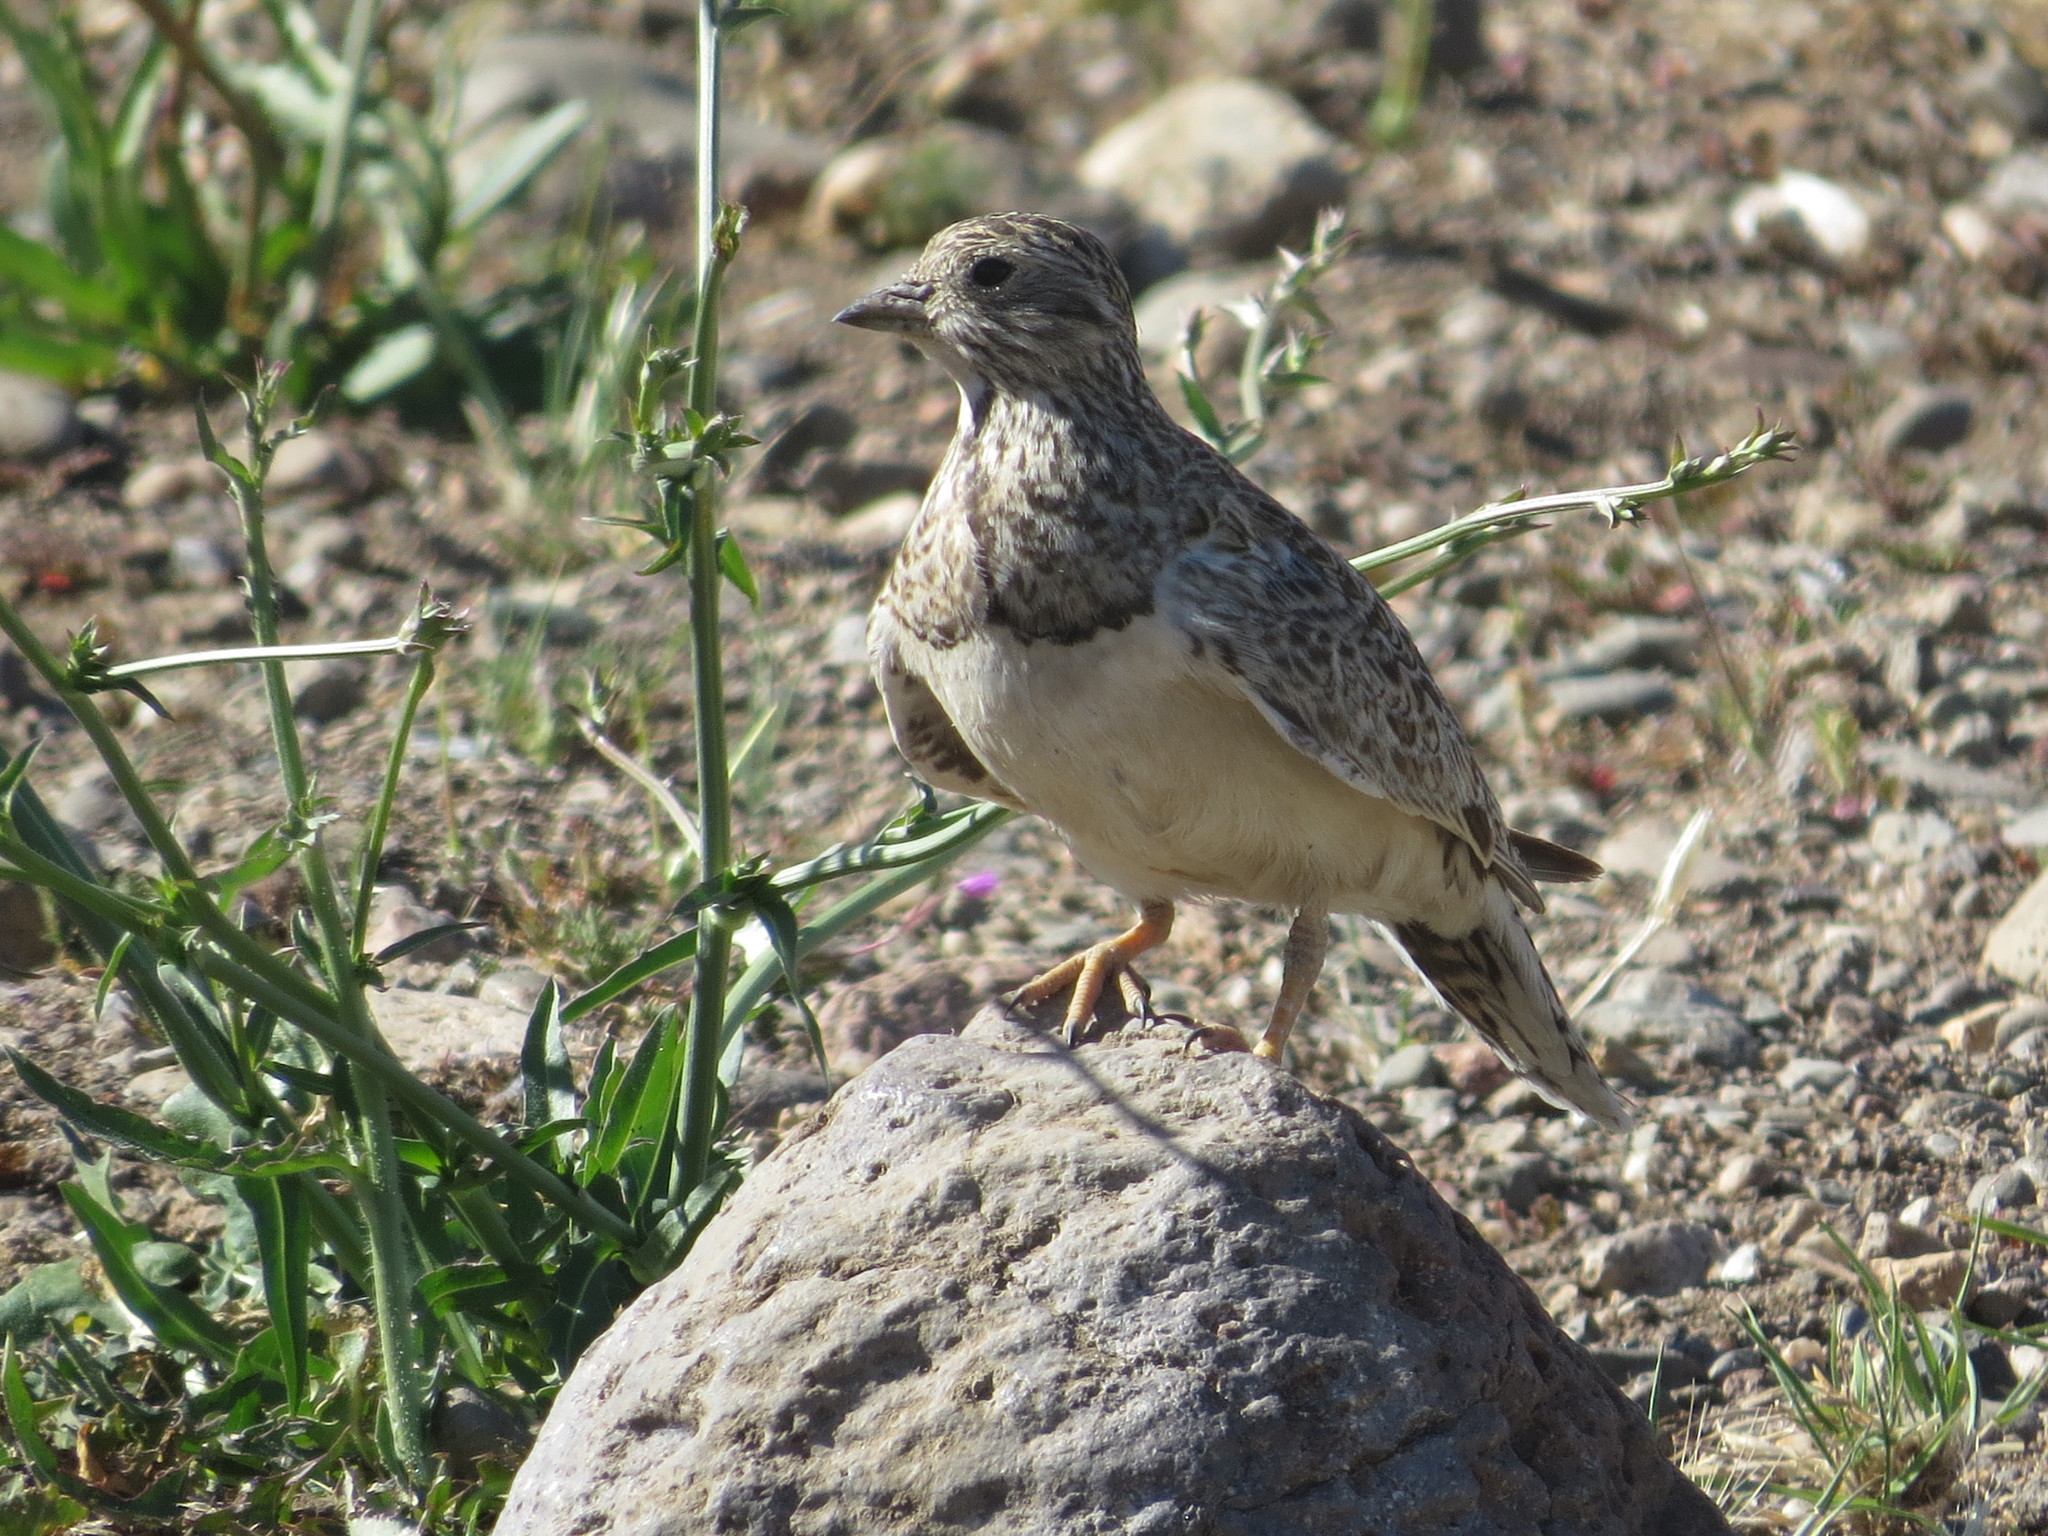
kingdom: Animalia
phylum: Chordata
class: Aves
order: Charadriiformes
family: Thinocoridae
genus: Thinocorus
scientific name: Thinocorus rumicivorus
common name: Least seedsnipe
